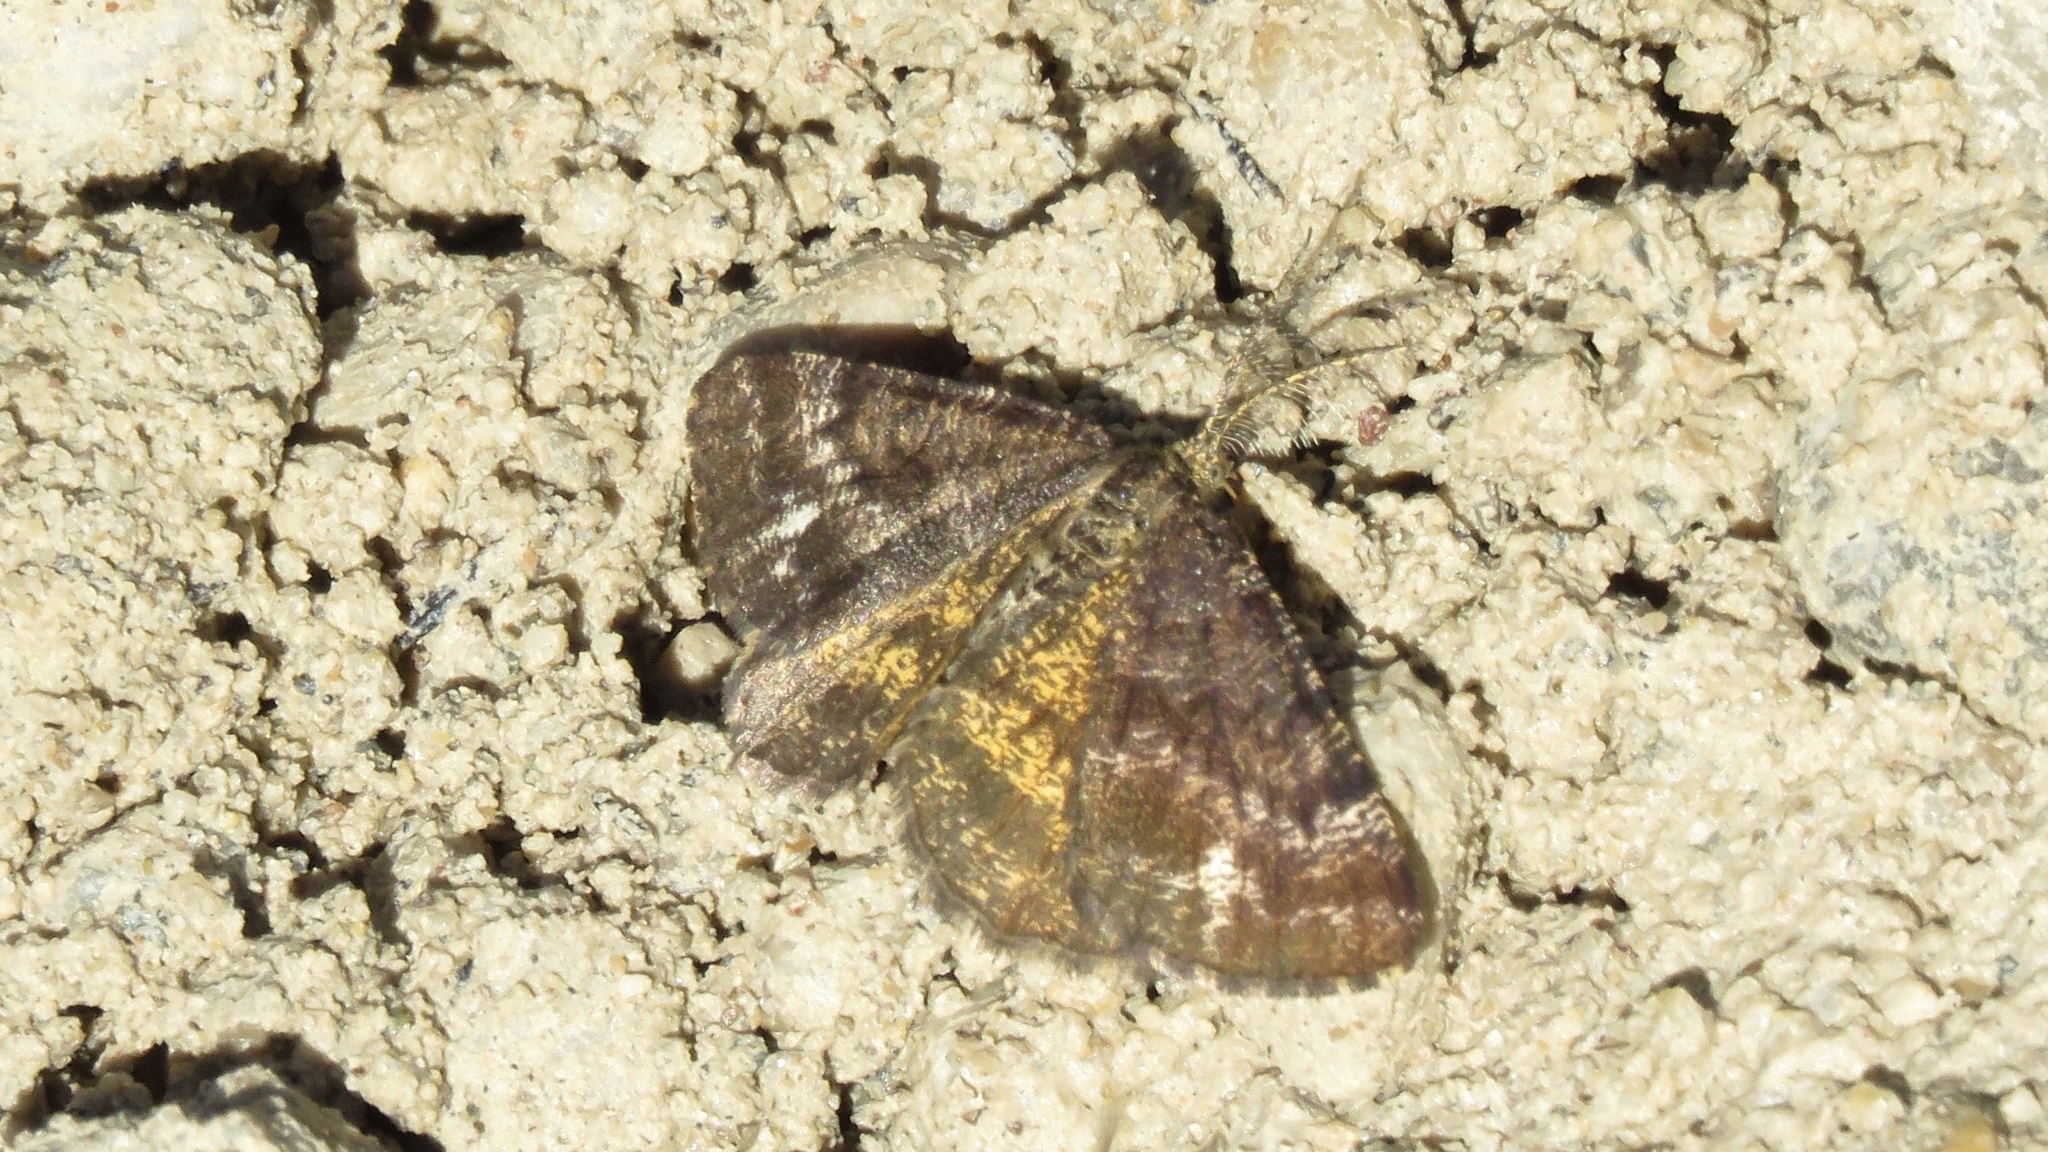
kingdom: Animalia
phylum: Arthropoda
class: Insecta
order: Lepidoptera
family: Geometridae
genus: Ematurga
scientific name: Ematurga amitaria
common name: Cranberry spanworm moth
